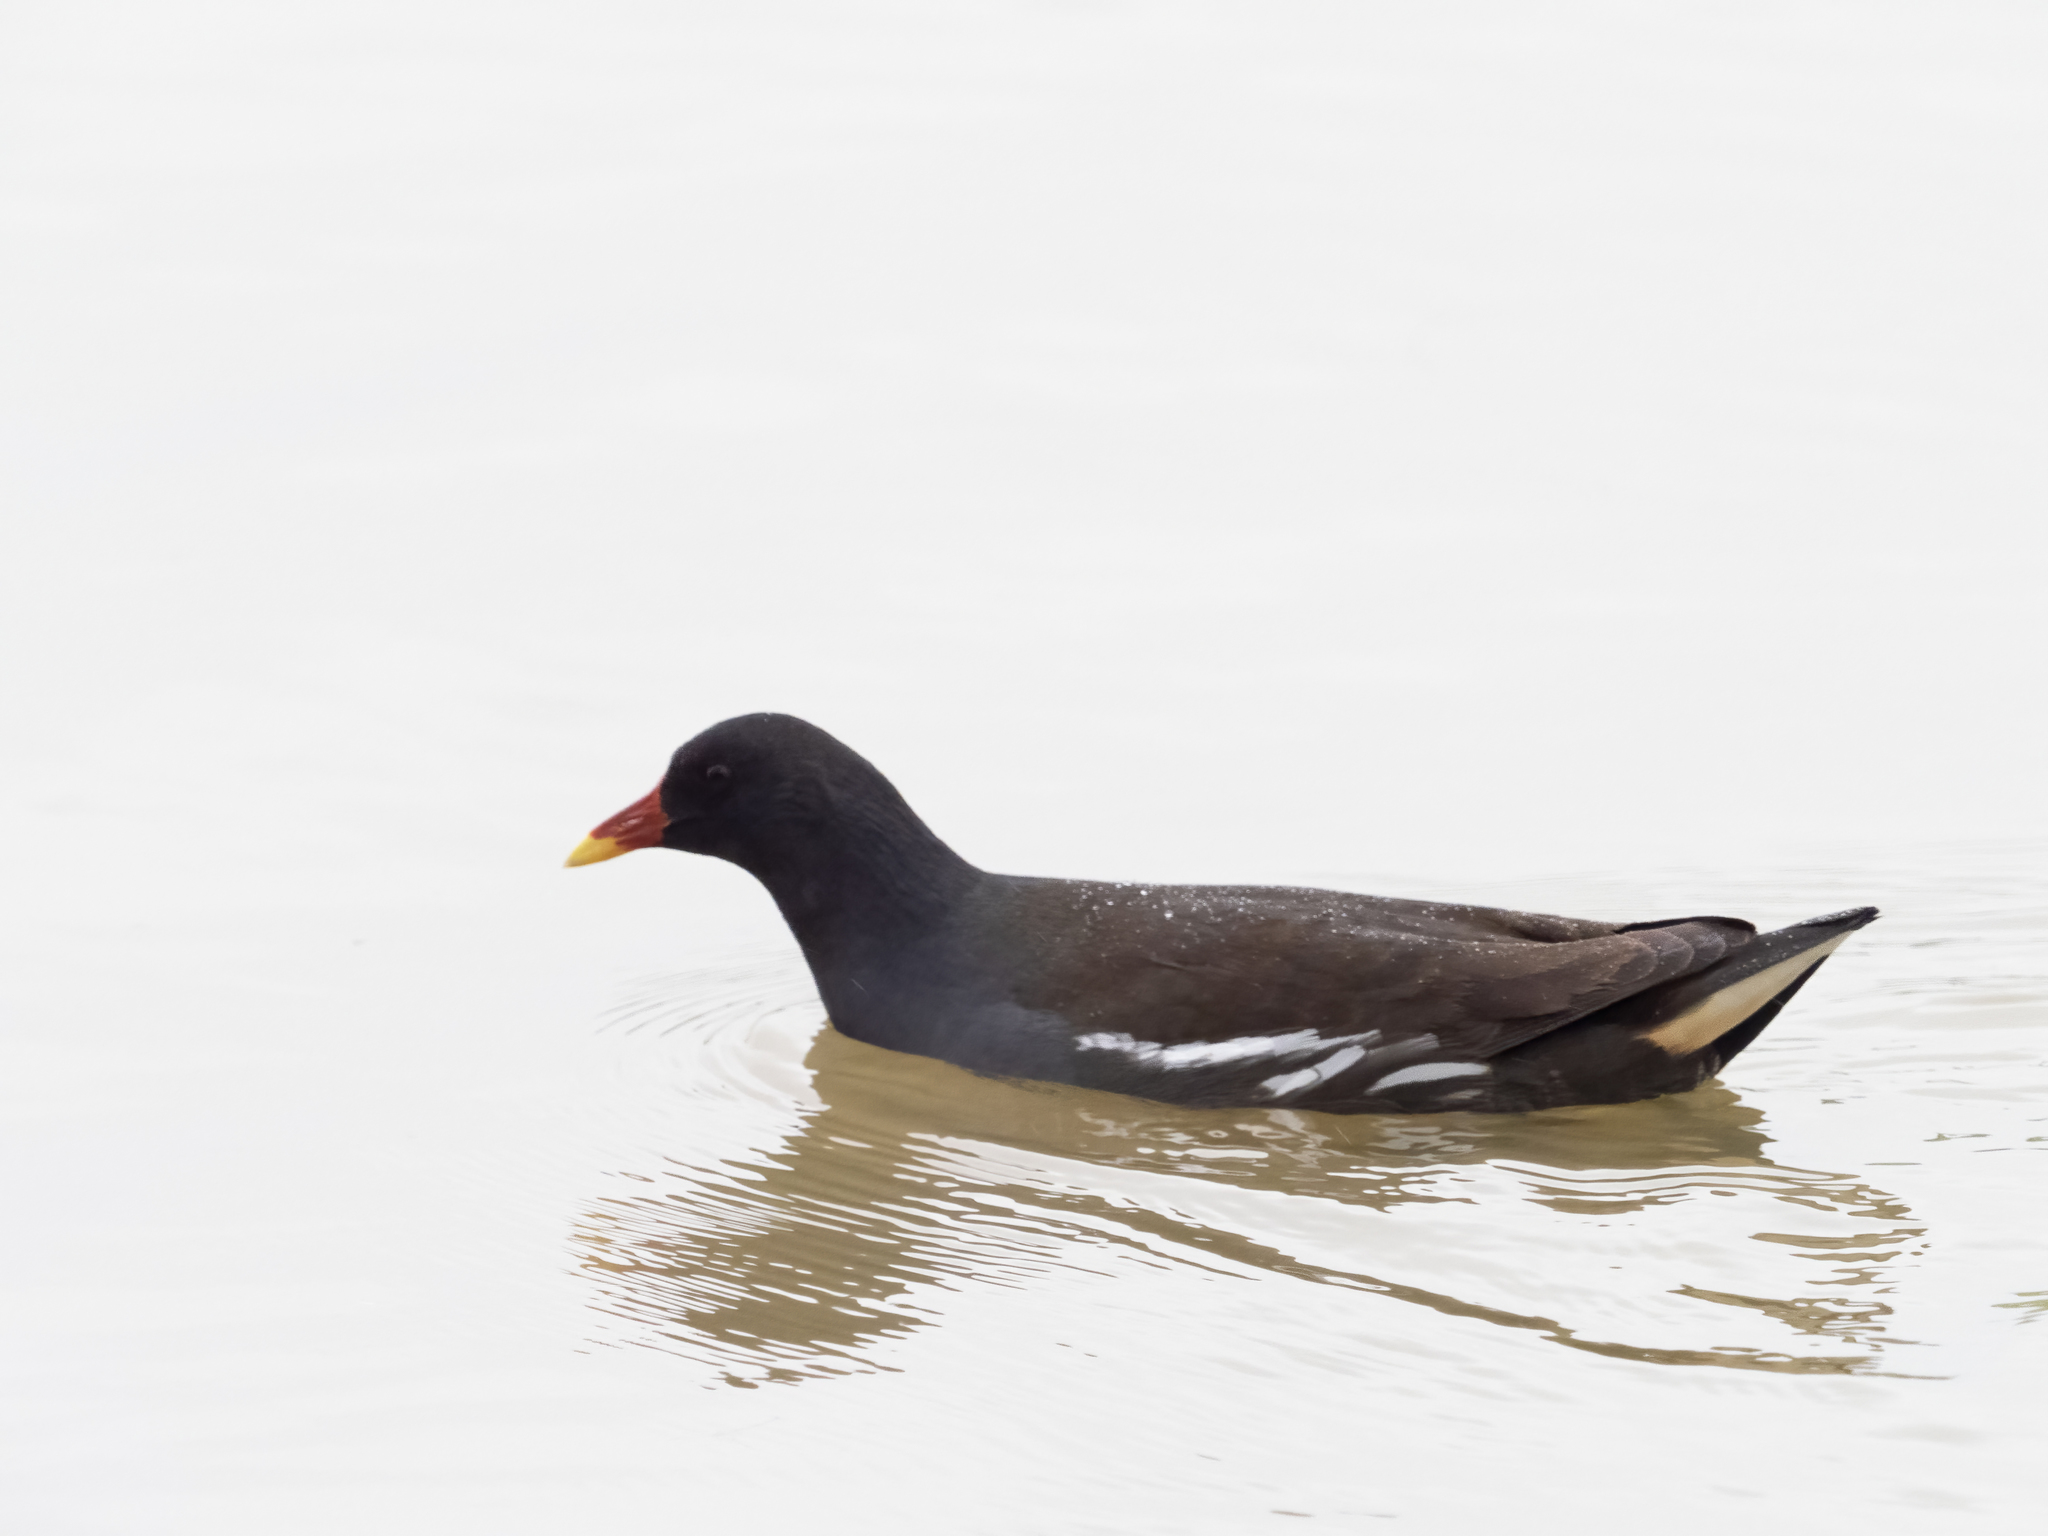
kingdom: Animalia
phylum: Chordata
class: Aves
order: Gruiformes
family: Rallidae
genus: Gallinula
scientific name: Gallinula chloropus
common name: Common moorhen
